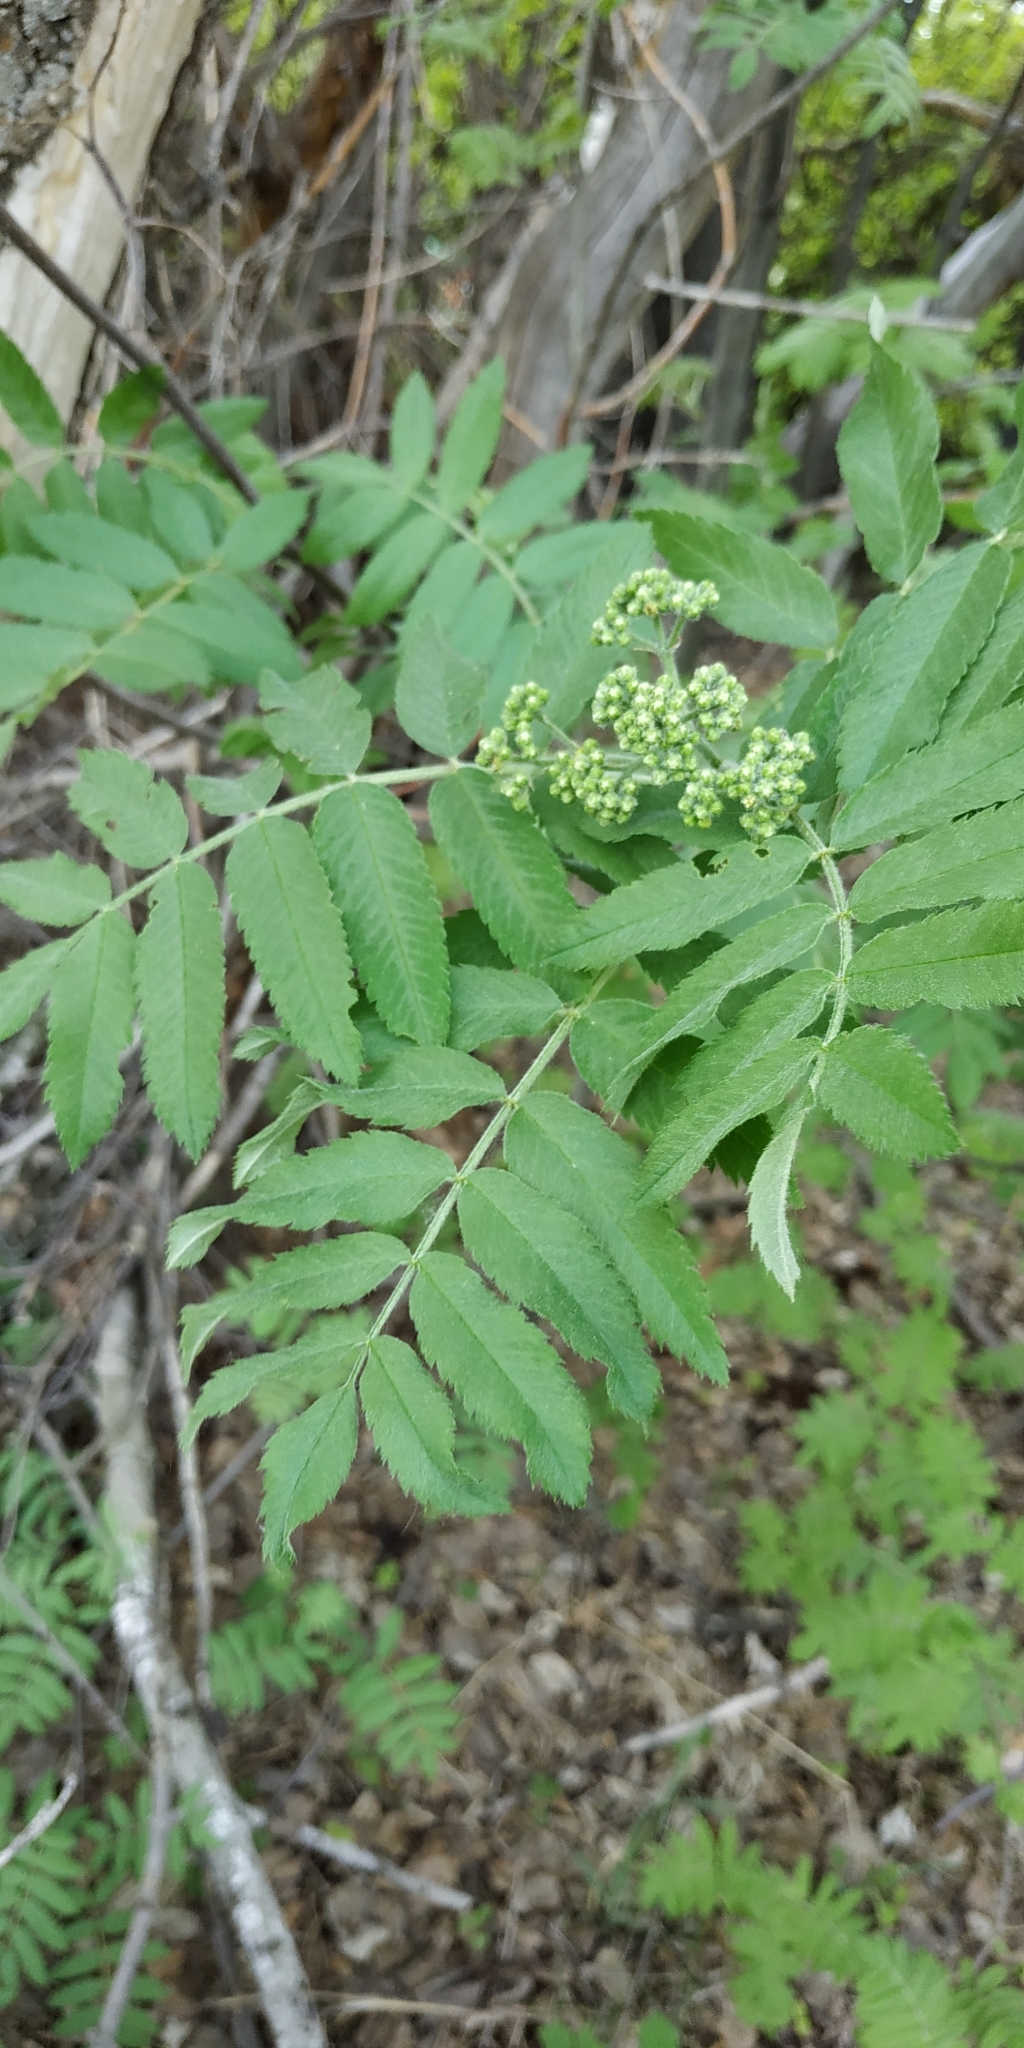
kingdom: Plantae
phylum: Tracheophyta
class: Magnoliopsida
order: Rosales
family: Rosaceae
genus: Sorbus
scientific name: Sorbus aucuparia
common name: Rowan
